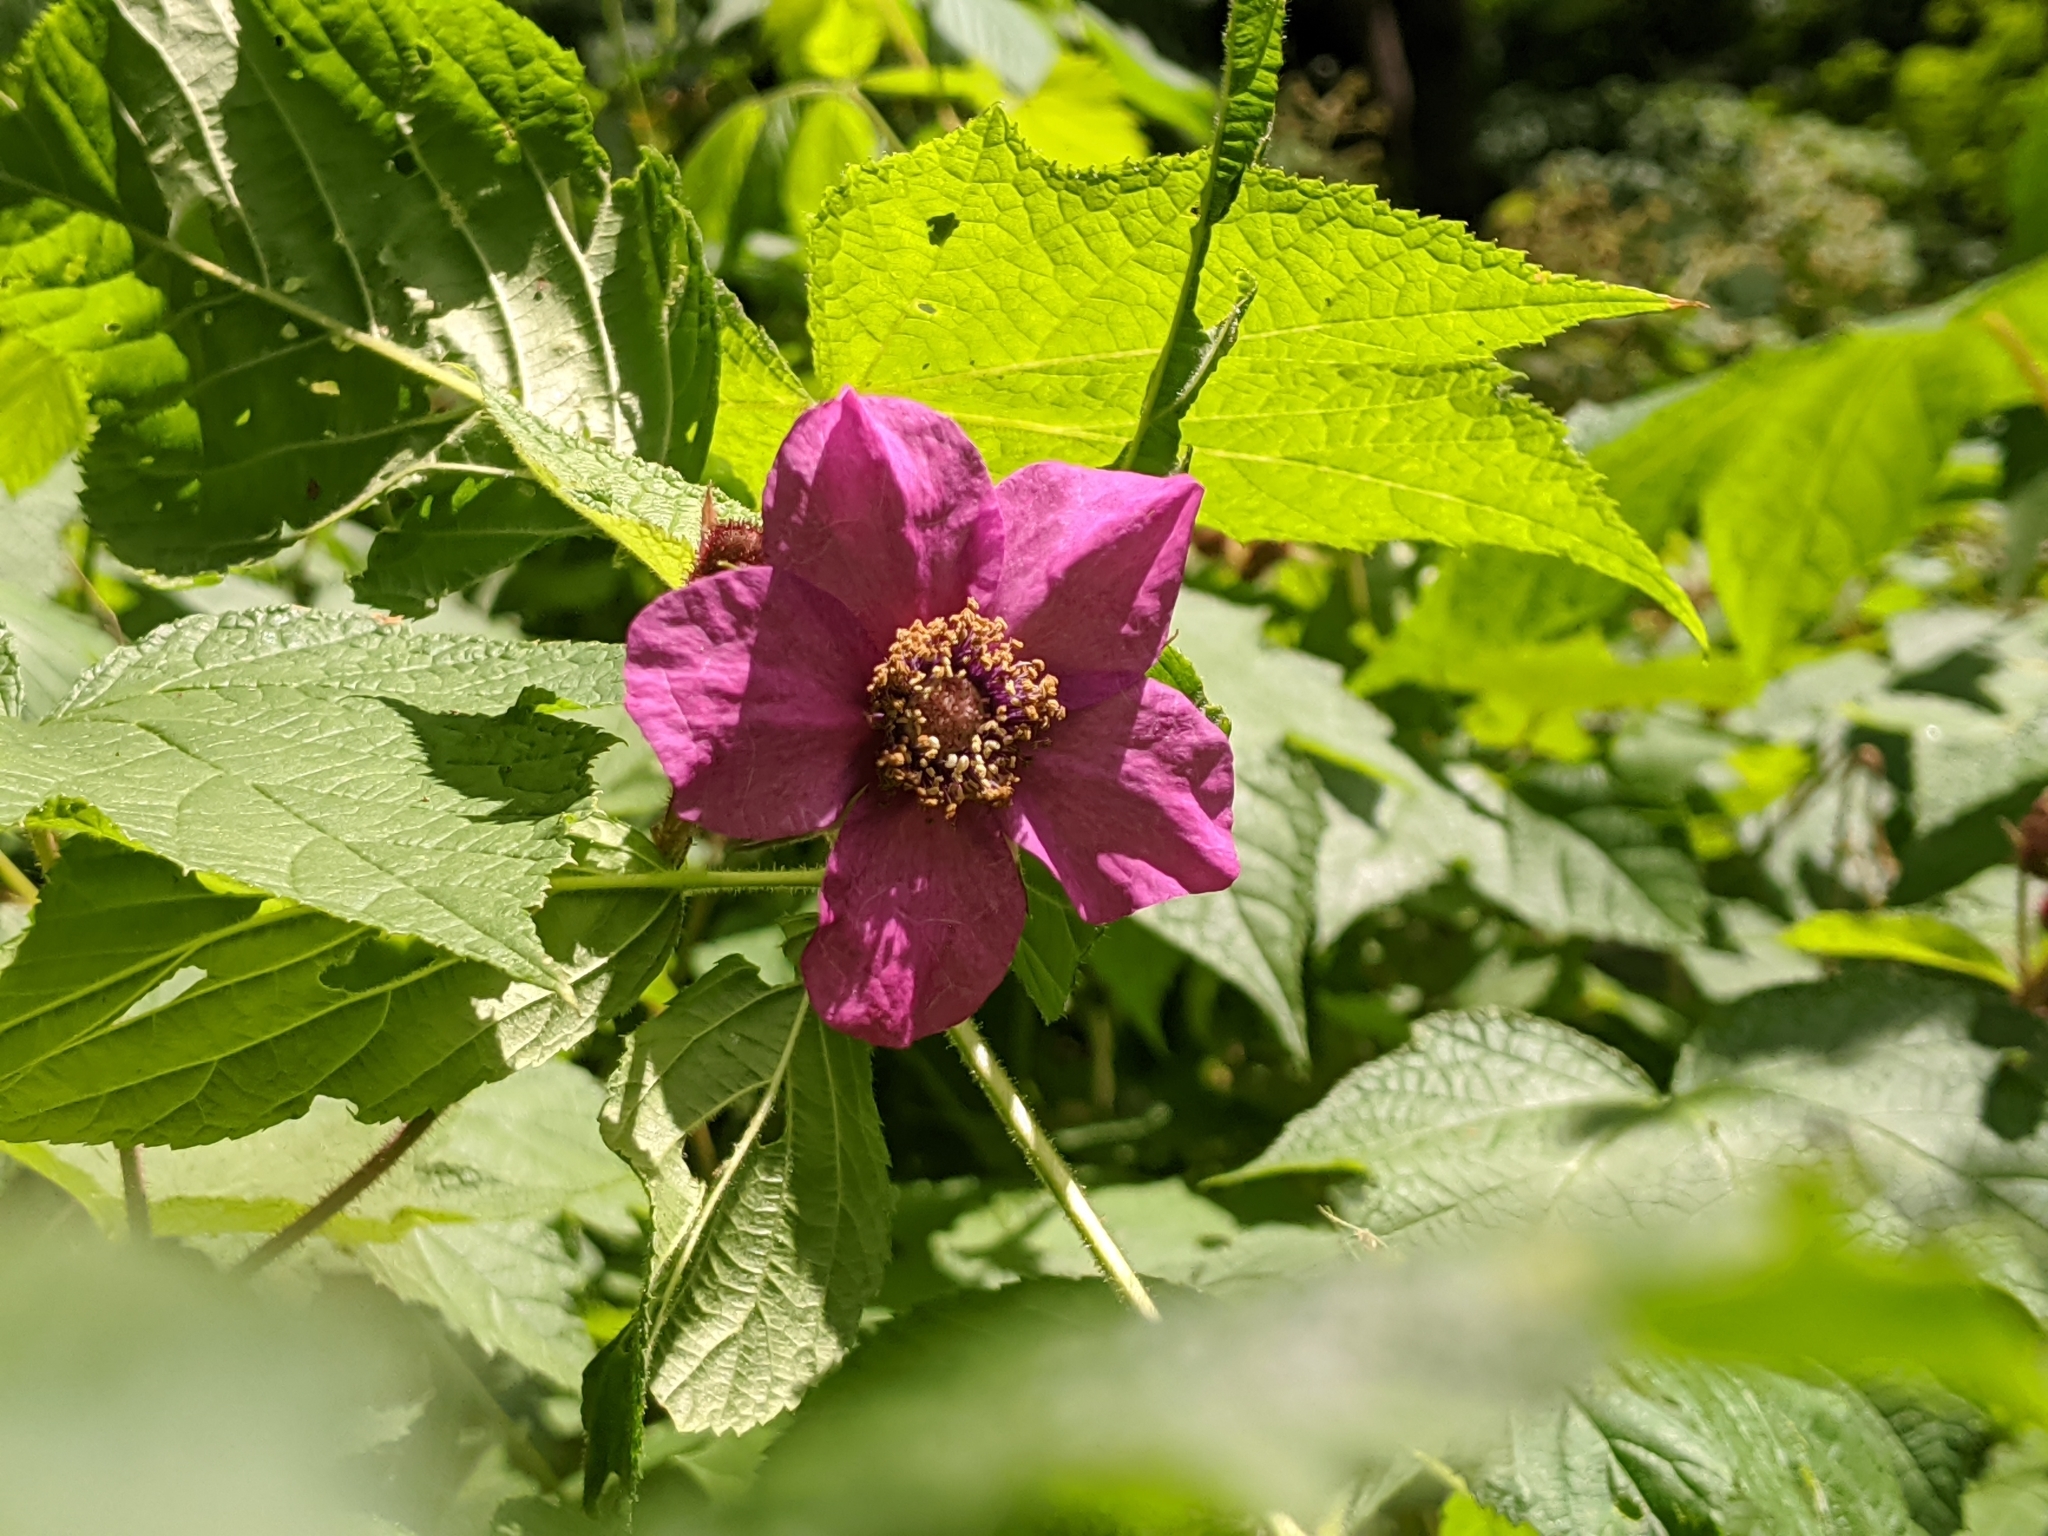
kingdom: Plantae
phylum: Tracheophyta
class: Magnoliopsida
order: Rosales
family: Rosaceae
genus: Rubus
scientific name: Rubus odoratus
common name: Purple-flowered raspberry
